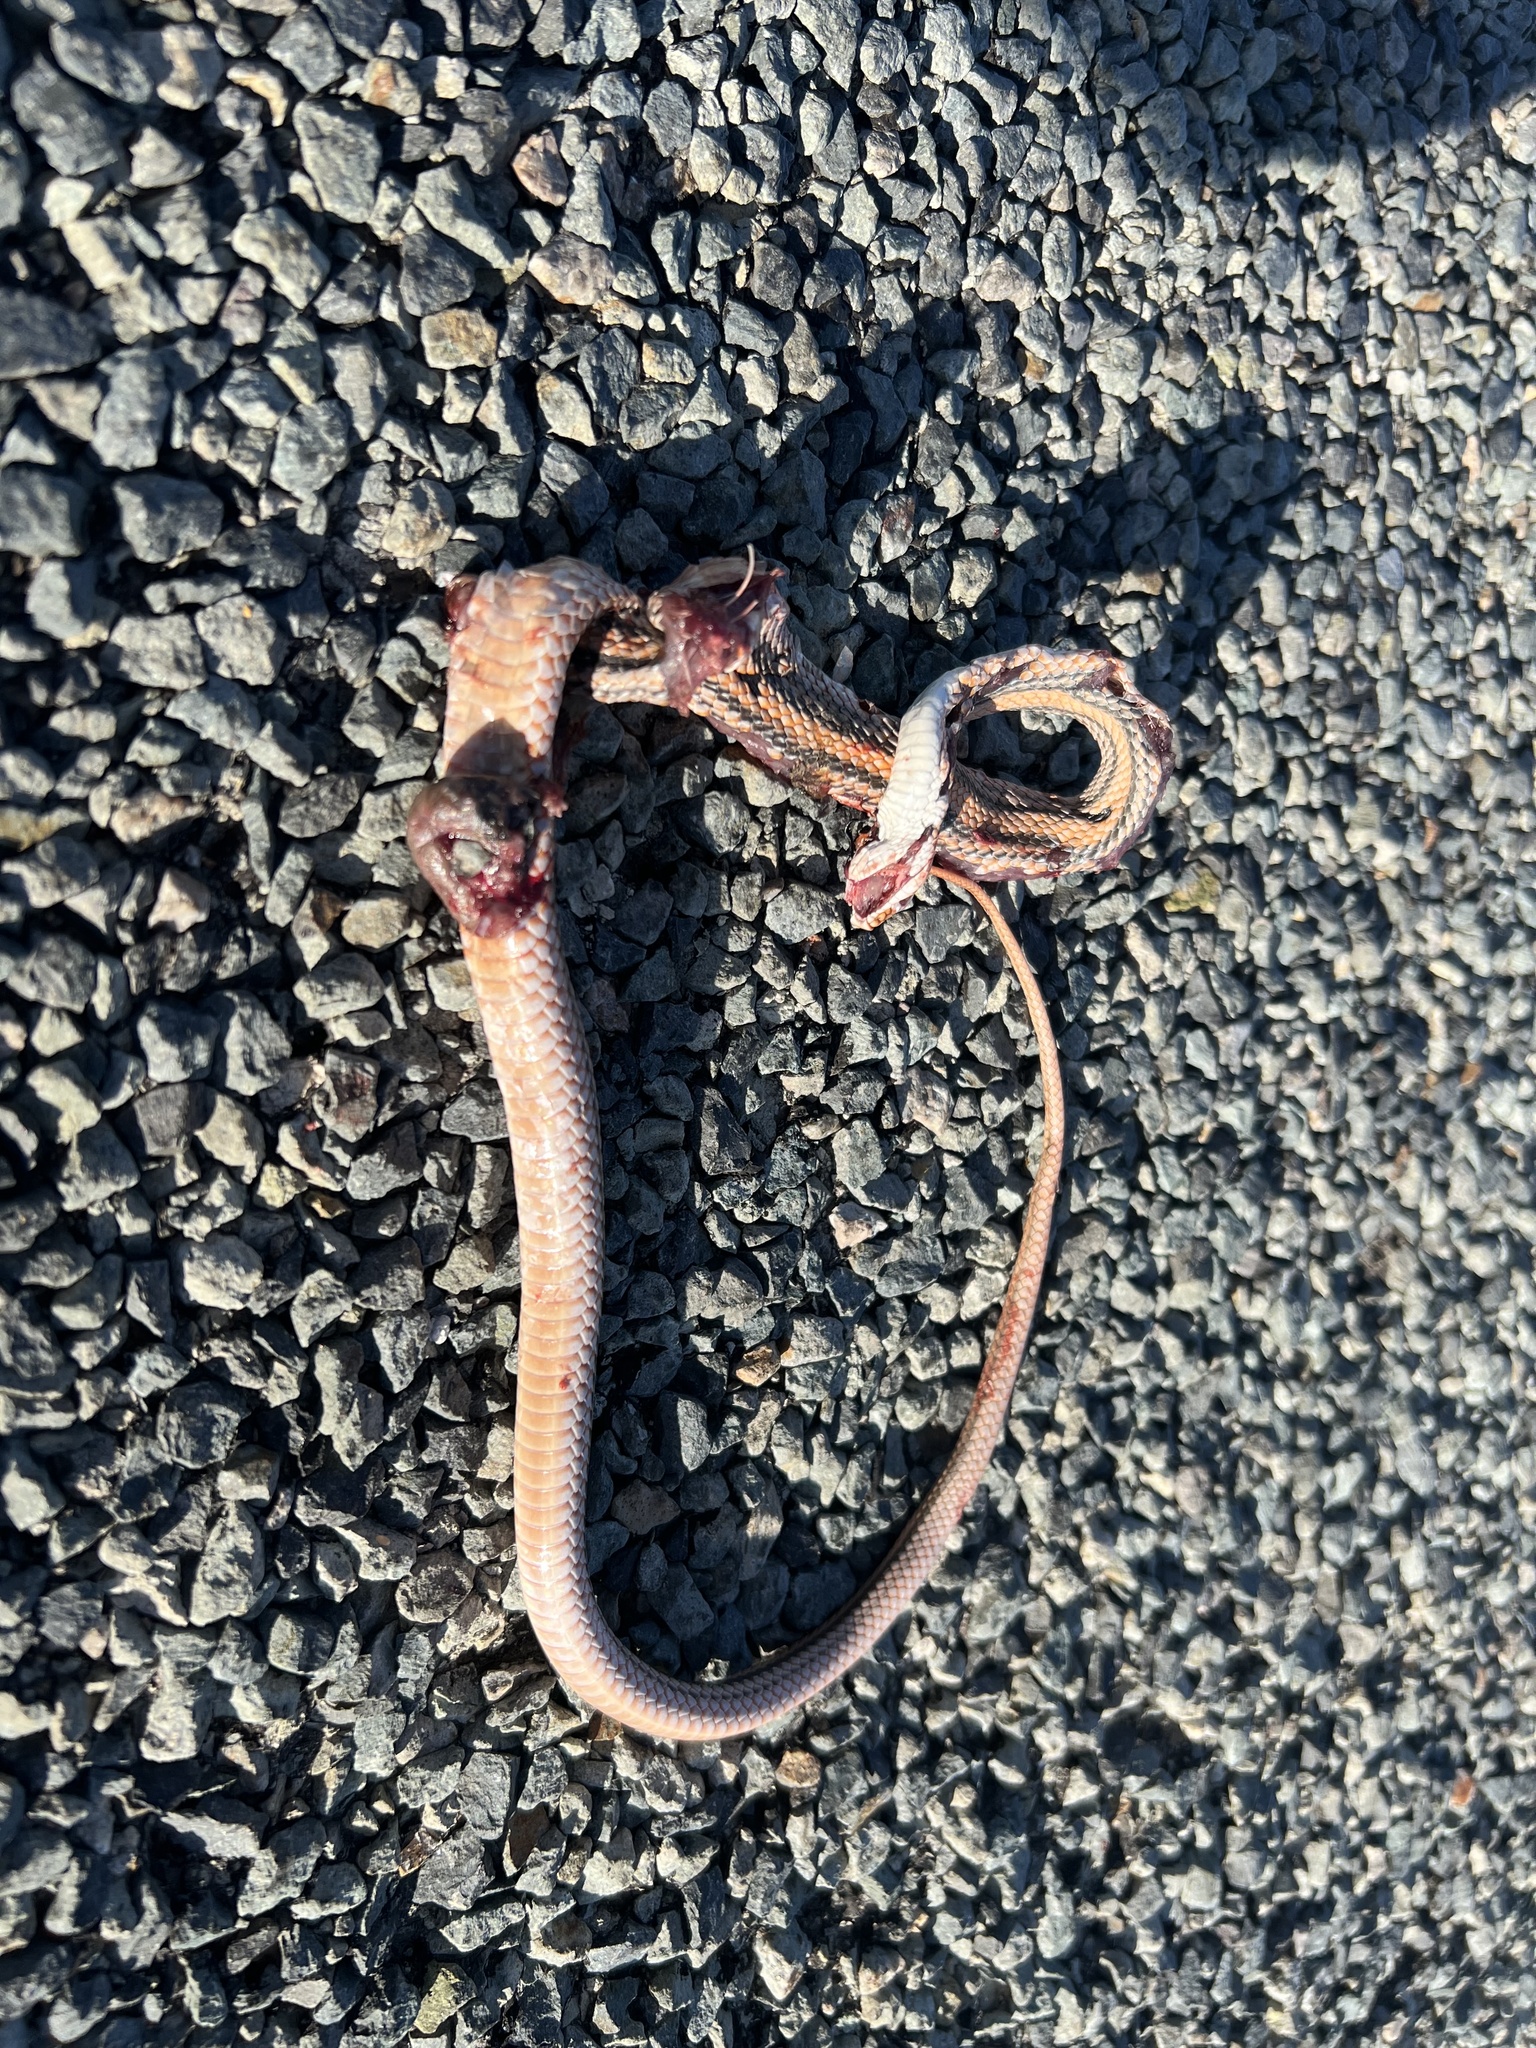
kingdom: Animalia
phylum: Chordata
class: Squamata
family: Colubridae
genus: Salvadora
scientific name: Salvadora deserticola
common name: Big bend patchnose snake
